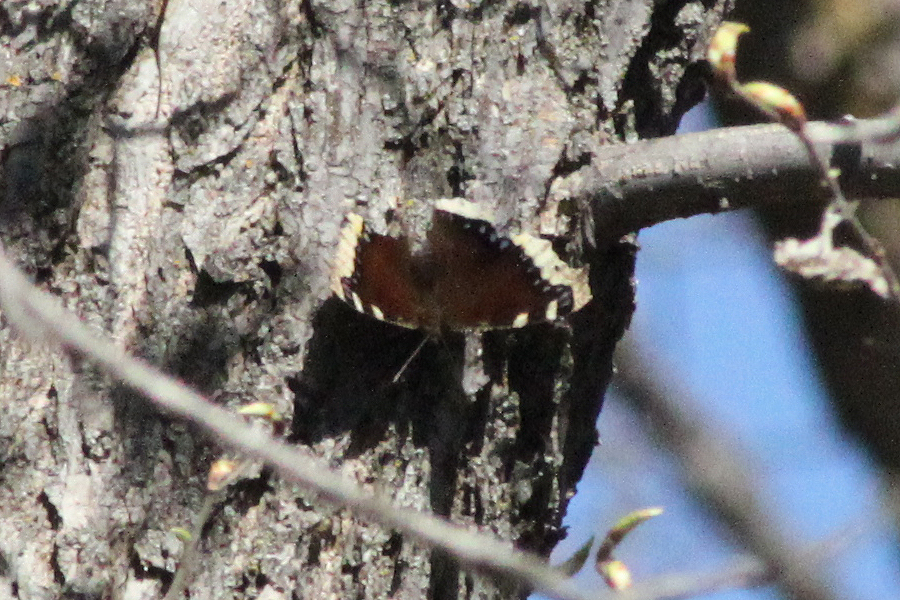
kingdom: Animalia
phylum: Arthropoda
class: Insecta
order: Lepidoptera
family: Nymphalidae
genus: Nymphalis
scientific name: Nymphalis antiopa
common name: Camberwell beauty
